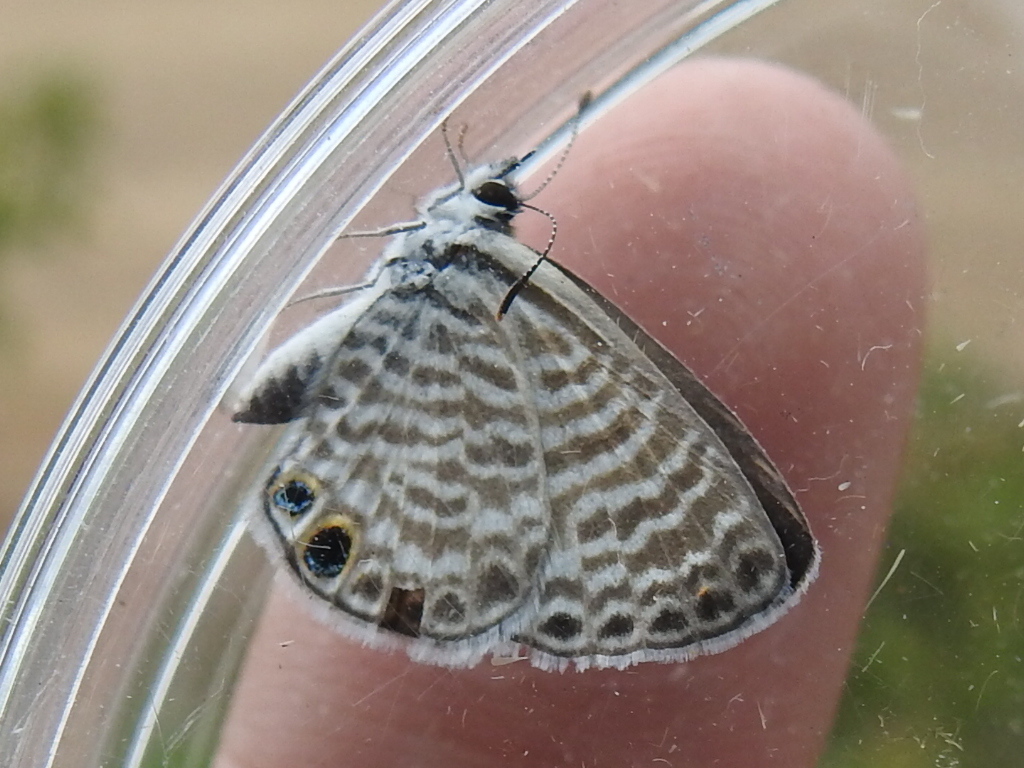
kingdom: Animalia
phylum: Arthropoda
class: Insecta
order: Lepidoptera
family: Lycaenidae
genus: Leptotes
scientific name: Leptotes marina
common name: Marine blue
